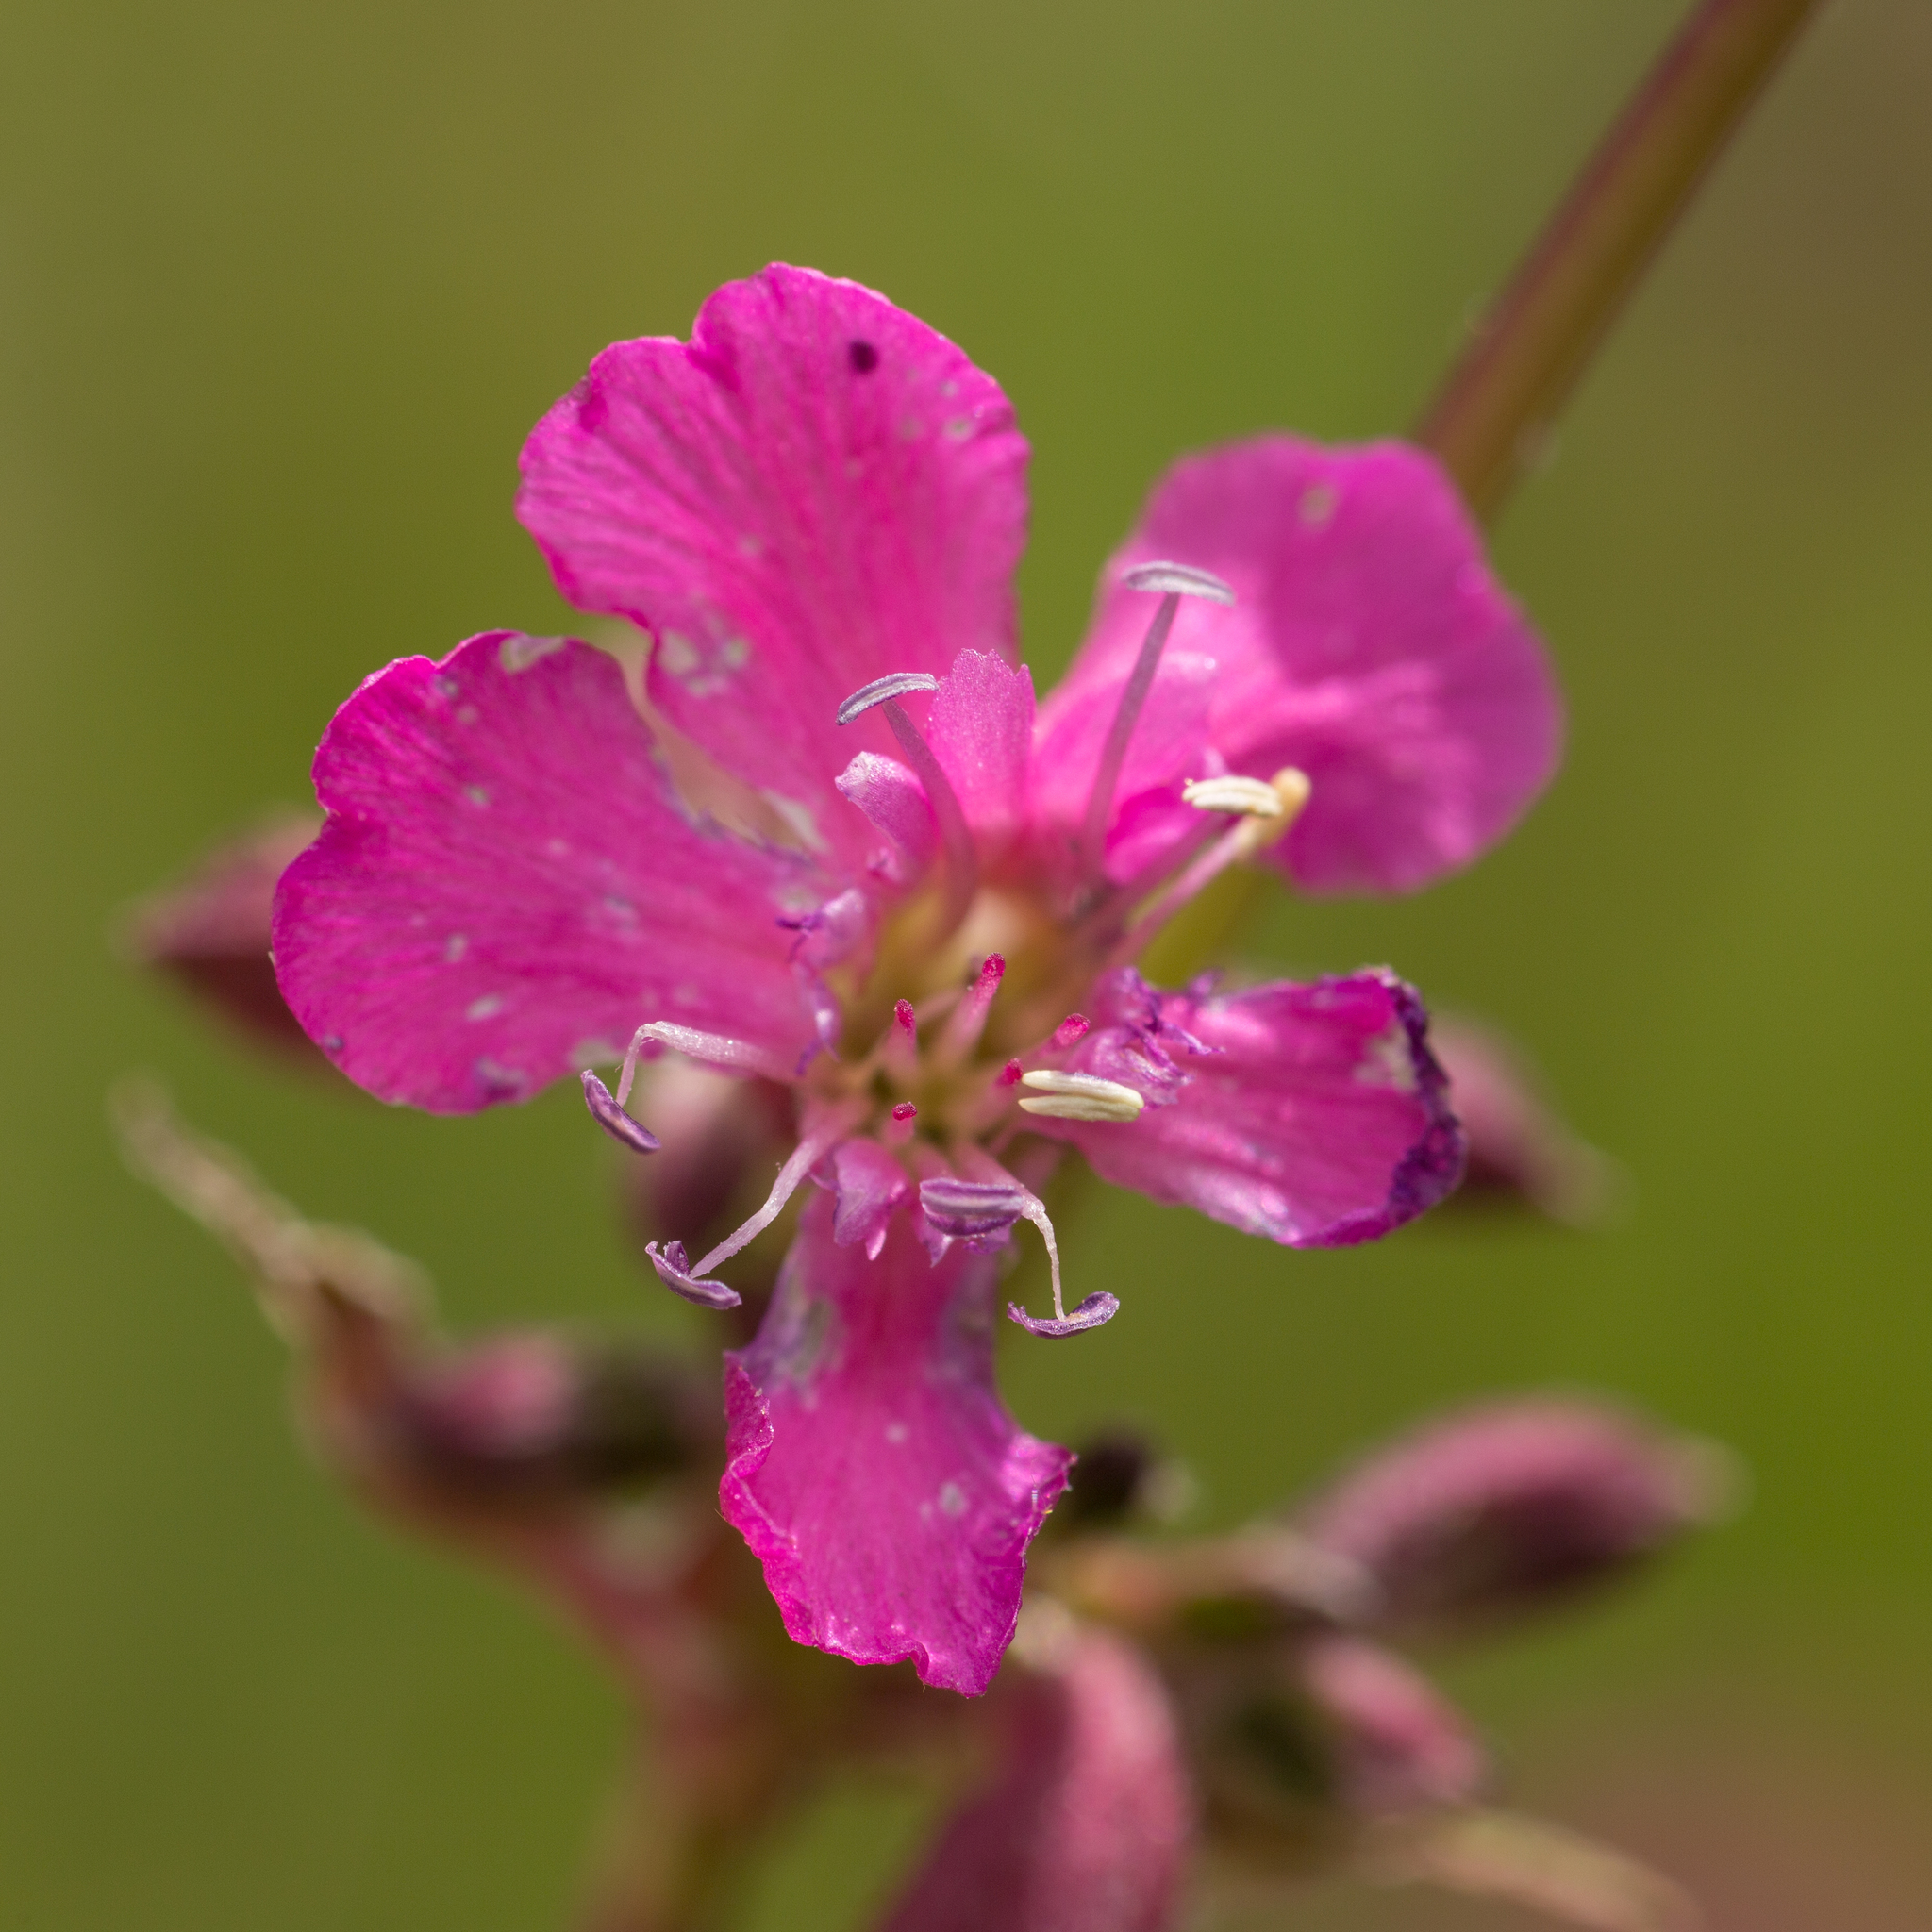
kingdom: Plantae
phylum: Tracheophyta
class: Magnoliopsida
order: Caryophyllales
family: Caryophyllaceae
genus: Viscaria
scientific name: Viscaria vulgaris
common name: Clammy campion
